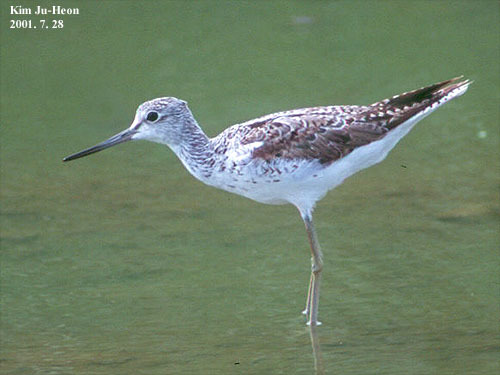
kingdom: Animalia
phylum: Chordata
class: Aves
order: Charadriiformes
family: Scolopacidae
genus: Tringa
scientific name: Tringa nebularia
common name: Common greenshank
